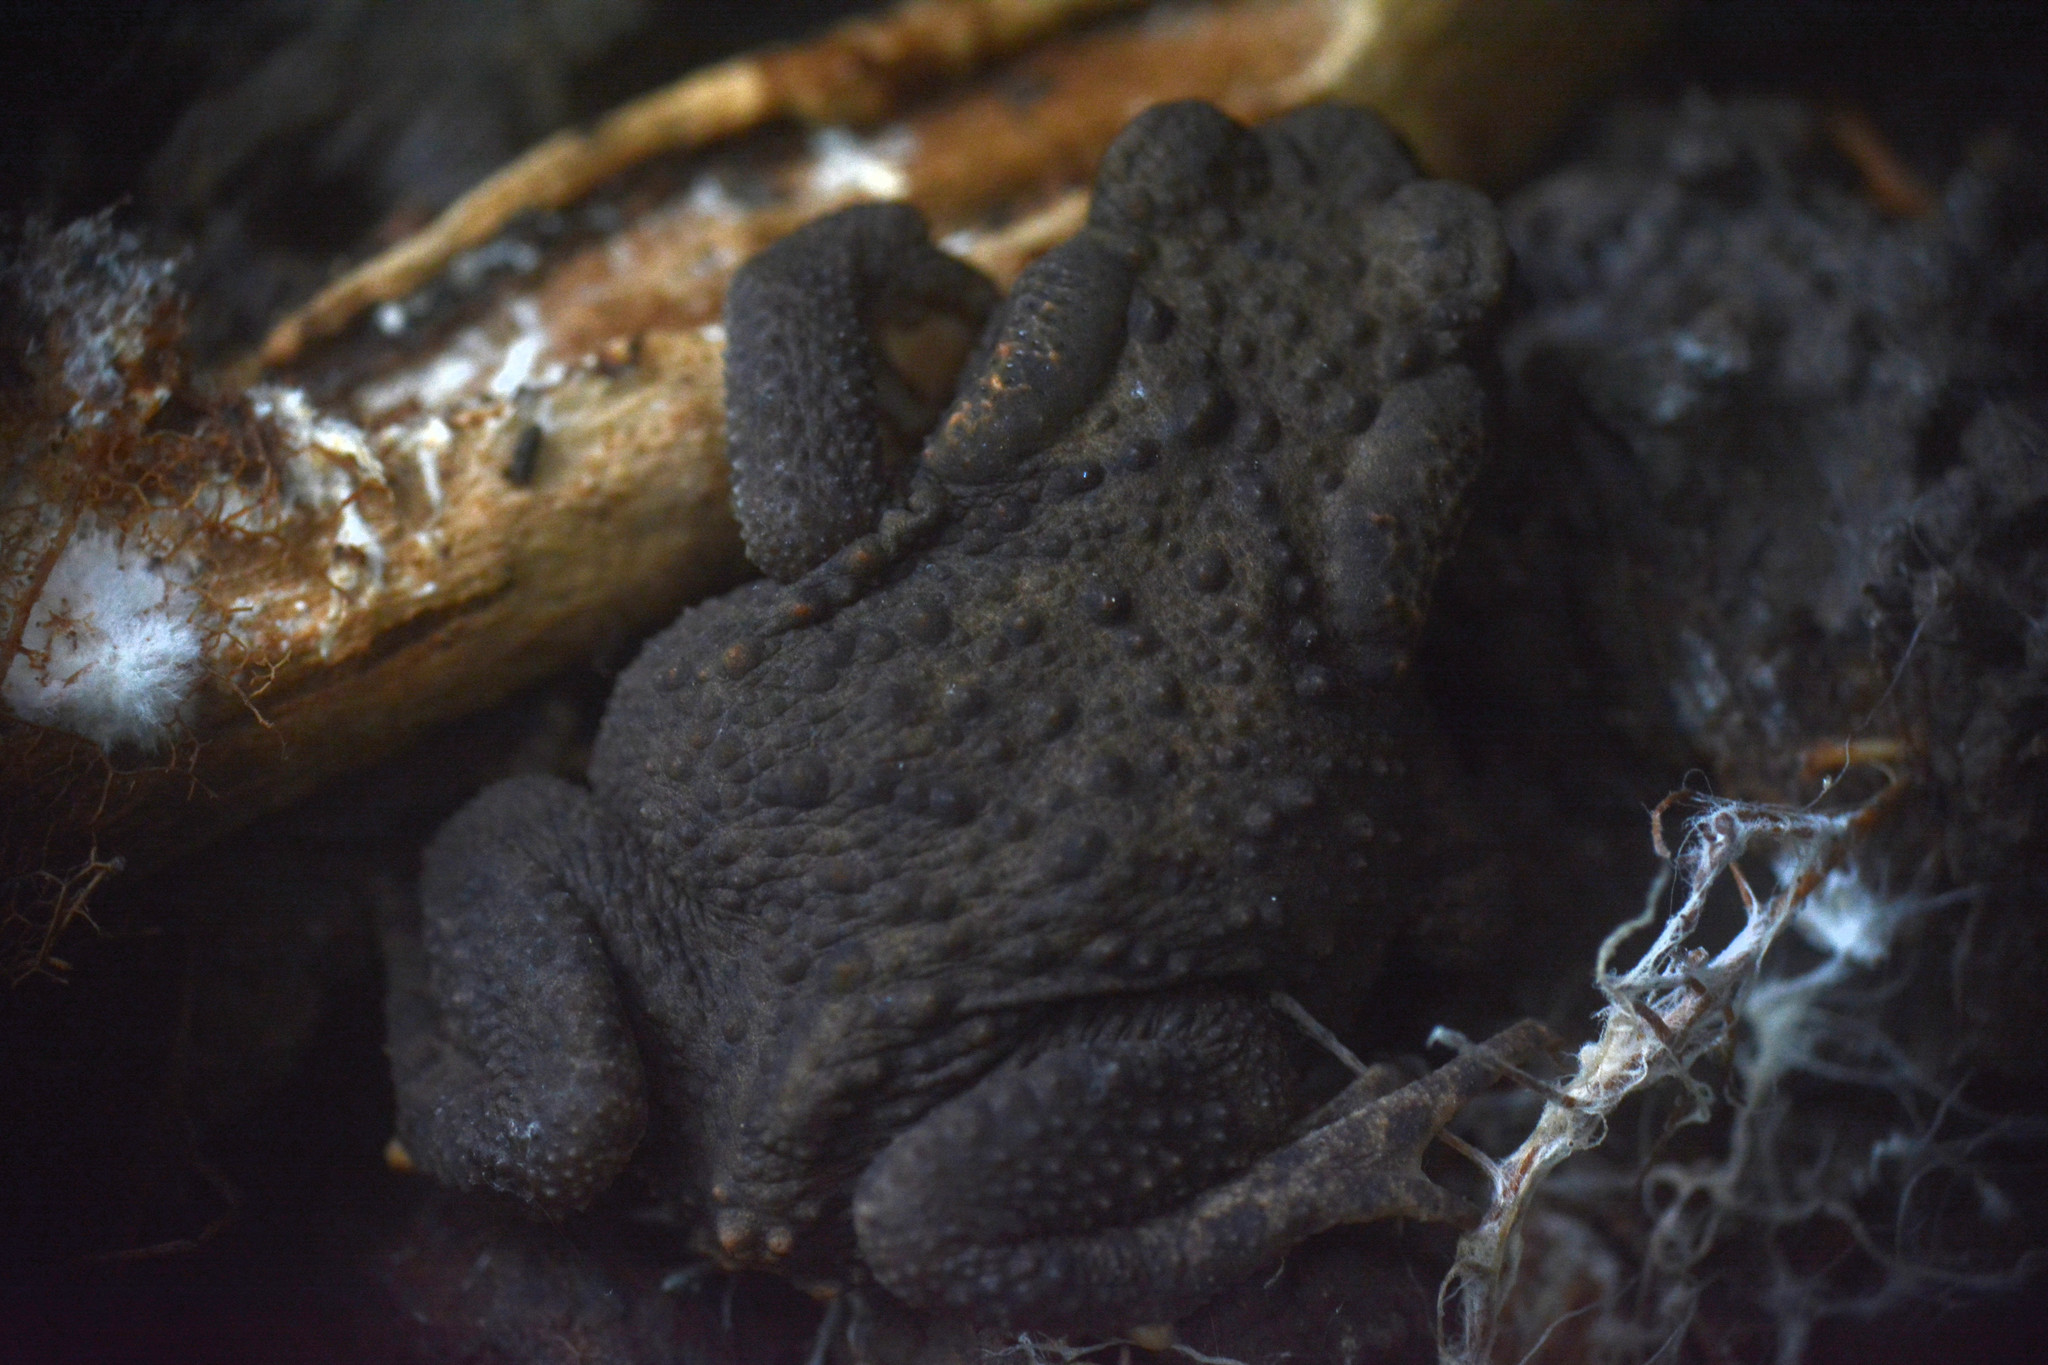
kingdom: Animalia
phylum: Chordata
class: Amphibia
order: Anura
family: Bufonidae
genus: Bufo
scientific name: Bufo bufo
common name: Common toad
